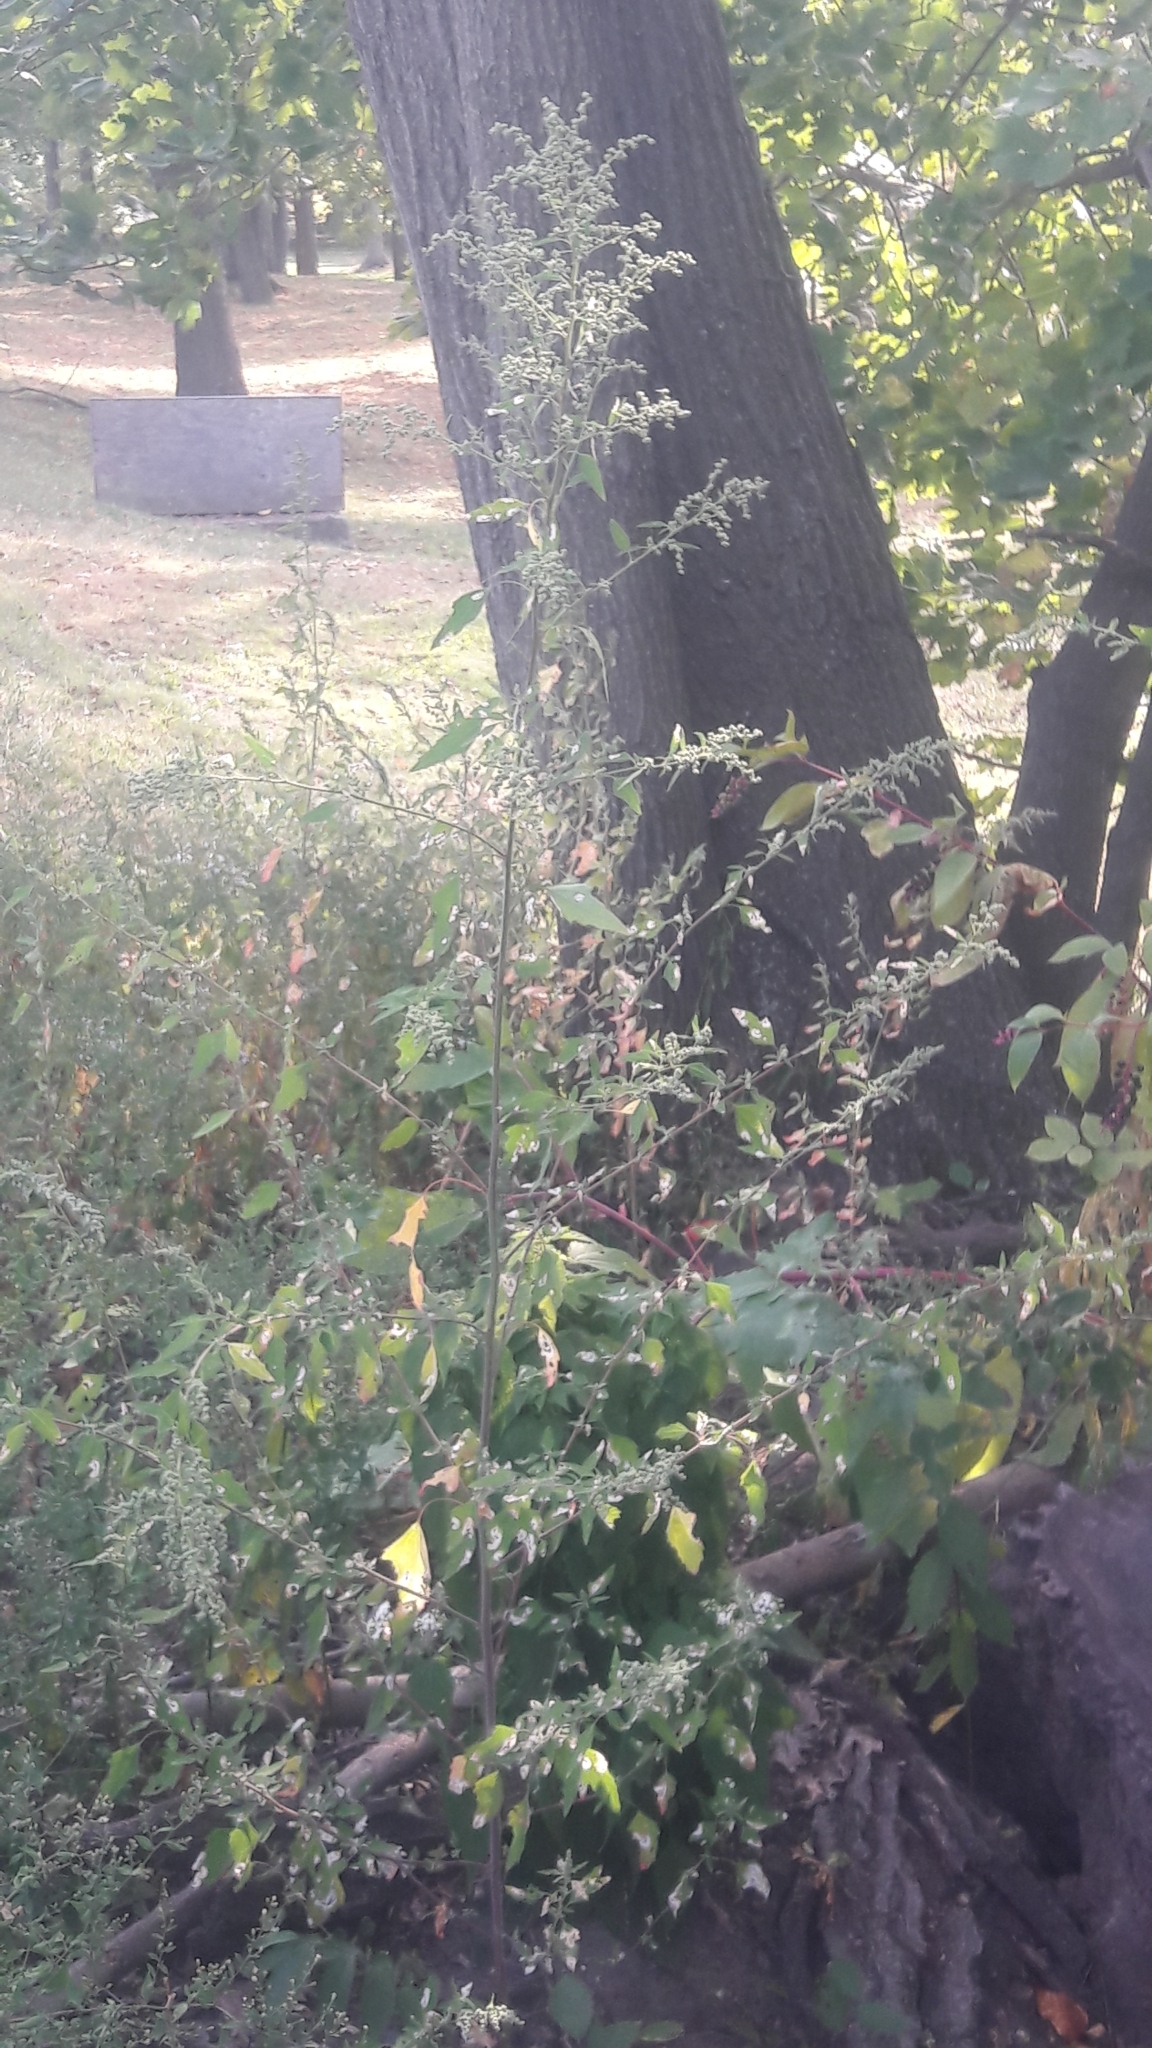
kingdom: Plantae
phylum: Tracheophyta
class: Magnoliopsida
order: Caryophyllales
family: Amaranthaceae
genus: Chenopodium
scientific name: Chenopodium album
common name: Fat-hen
